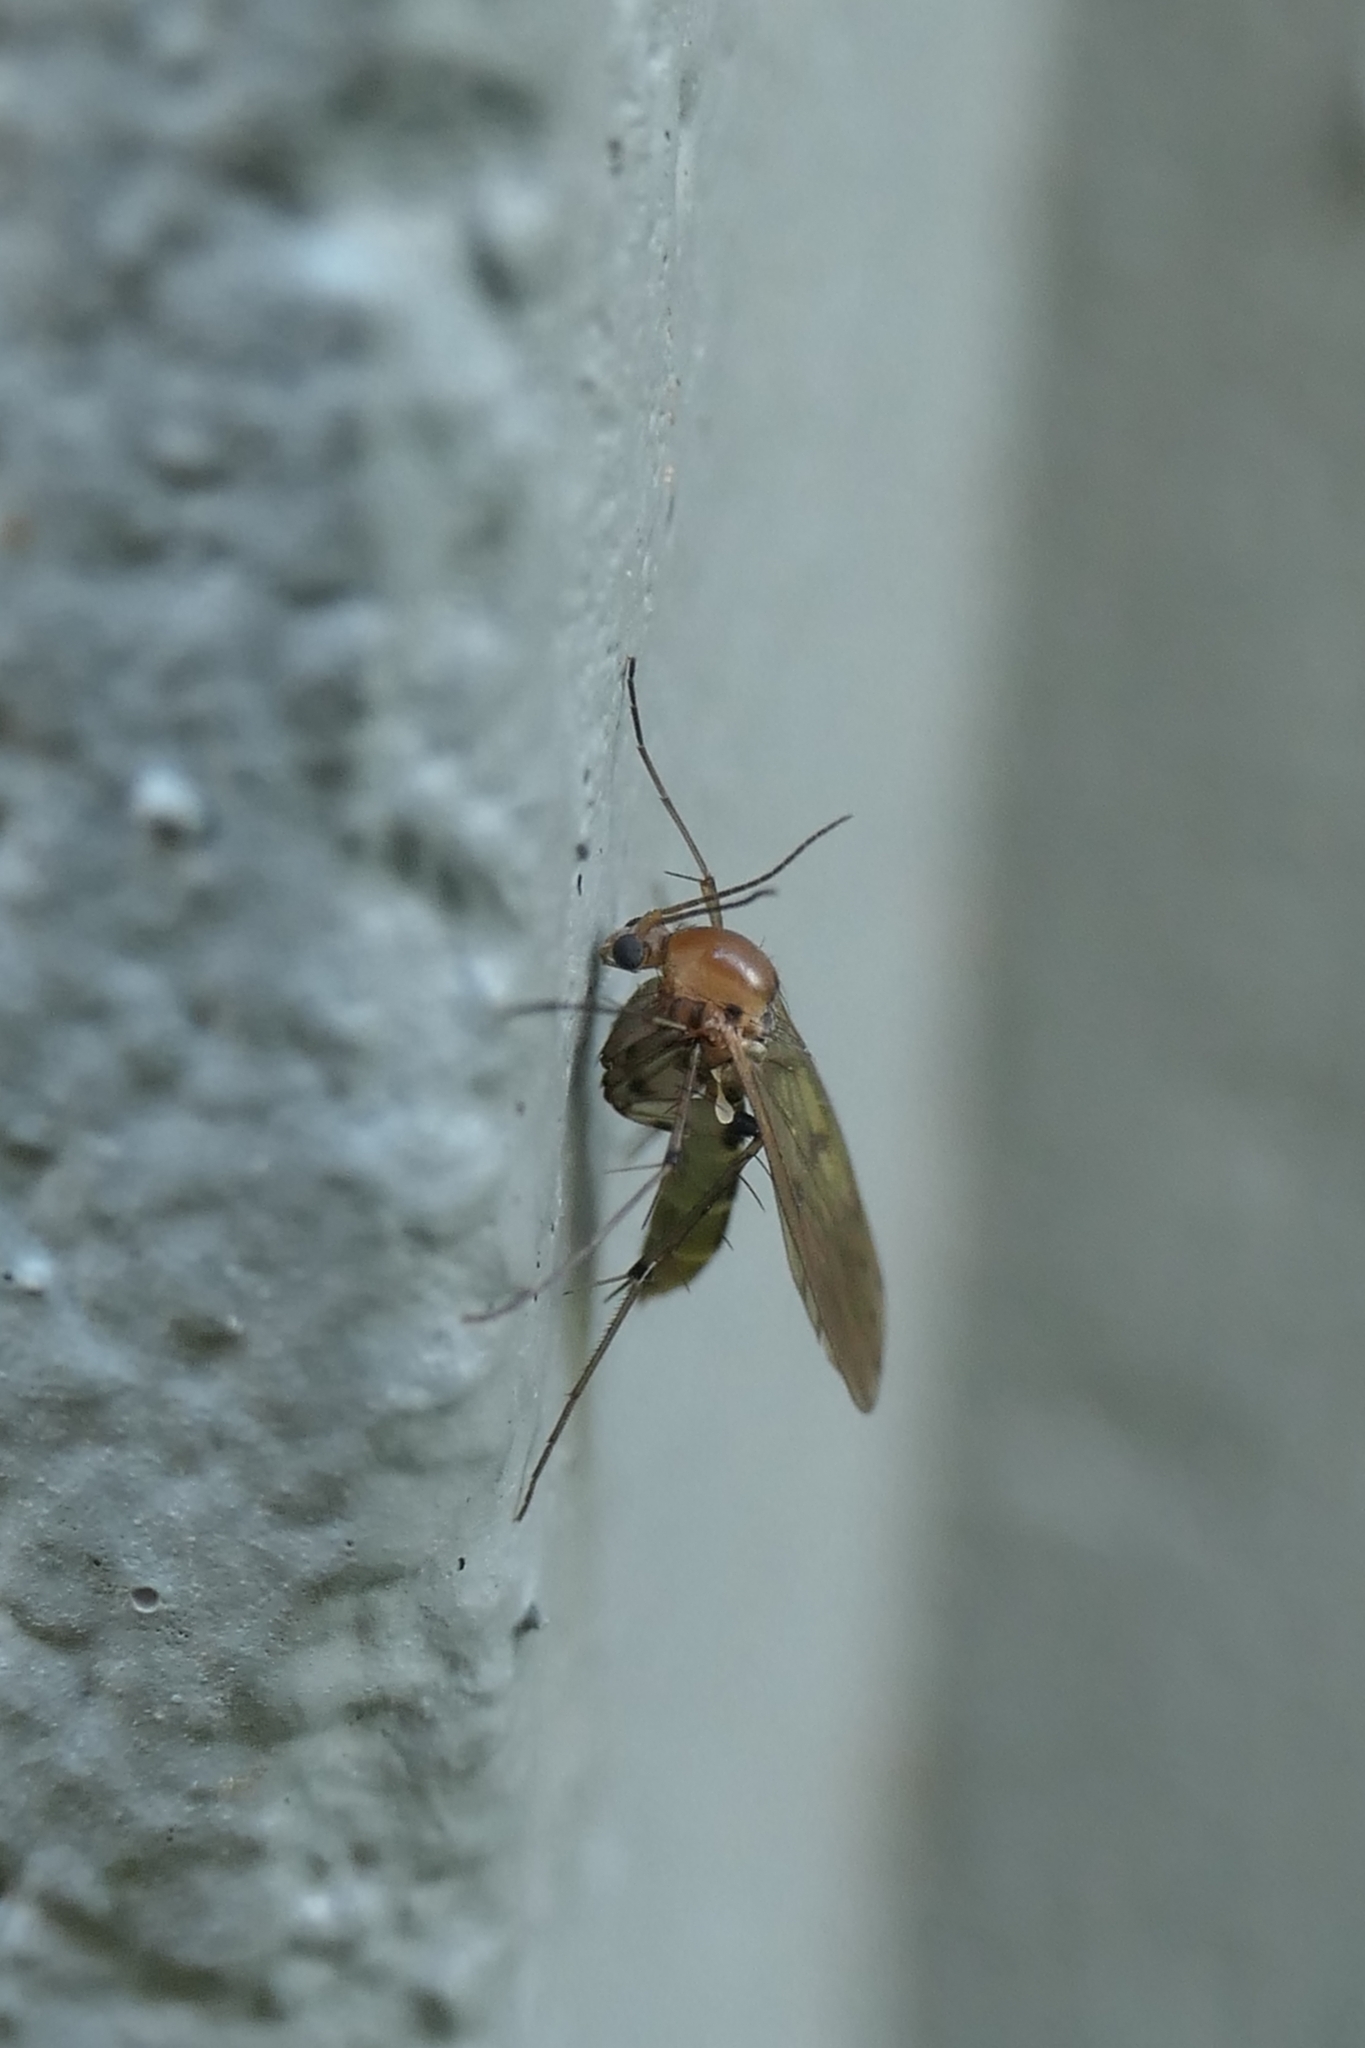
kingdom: Animalia
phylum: Arthropoda
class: Insecta
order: Diptera
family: Mycetophilidae
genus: Mycetophila
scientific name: Mycetophila marginepunctata
